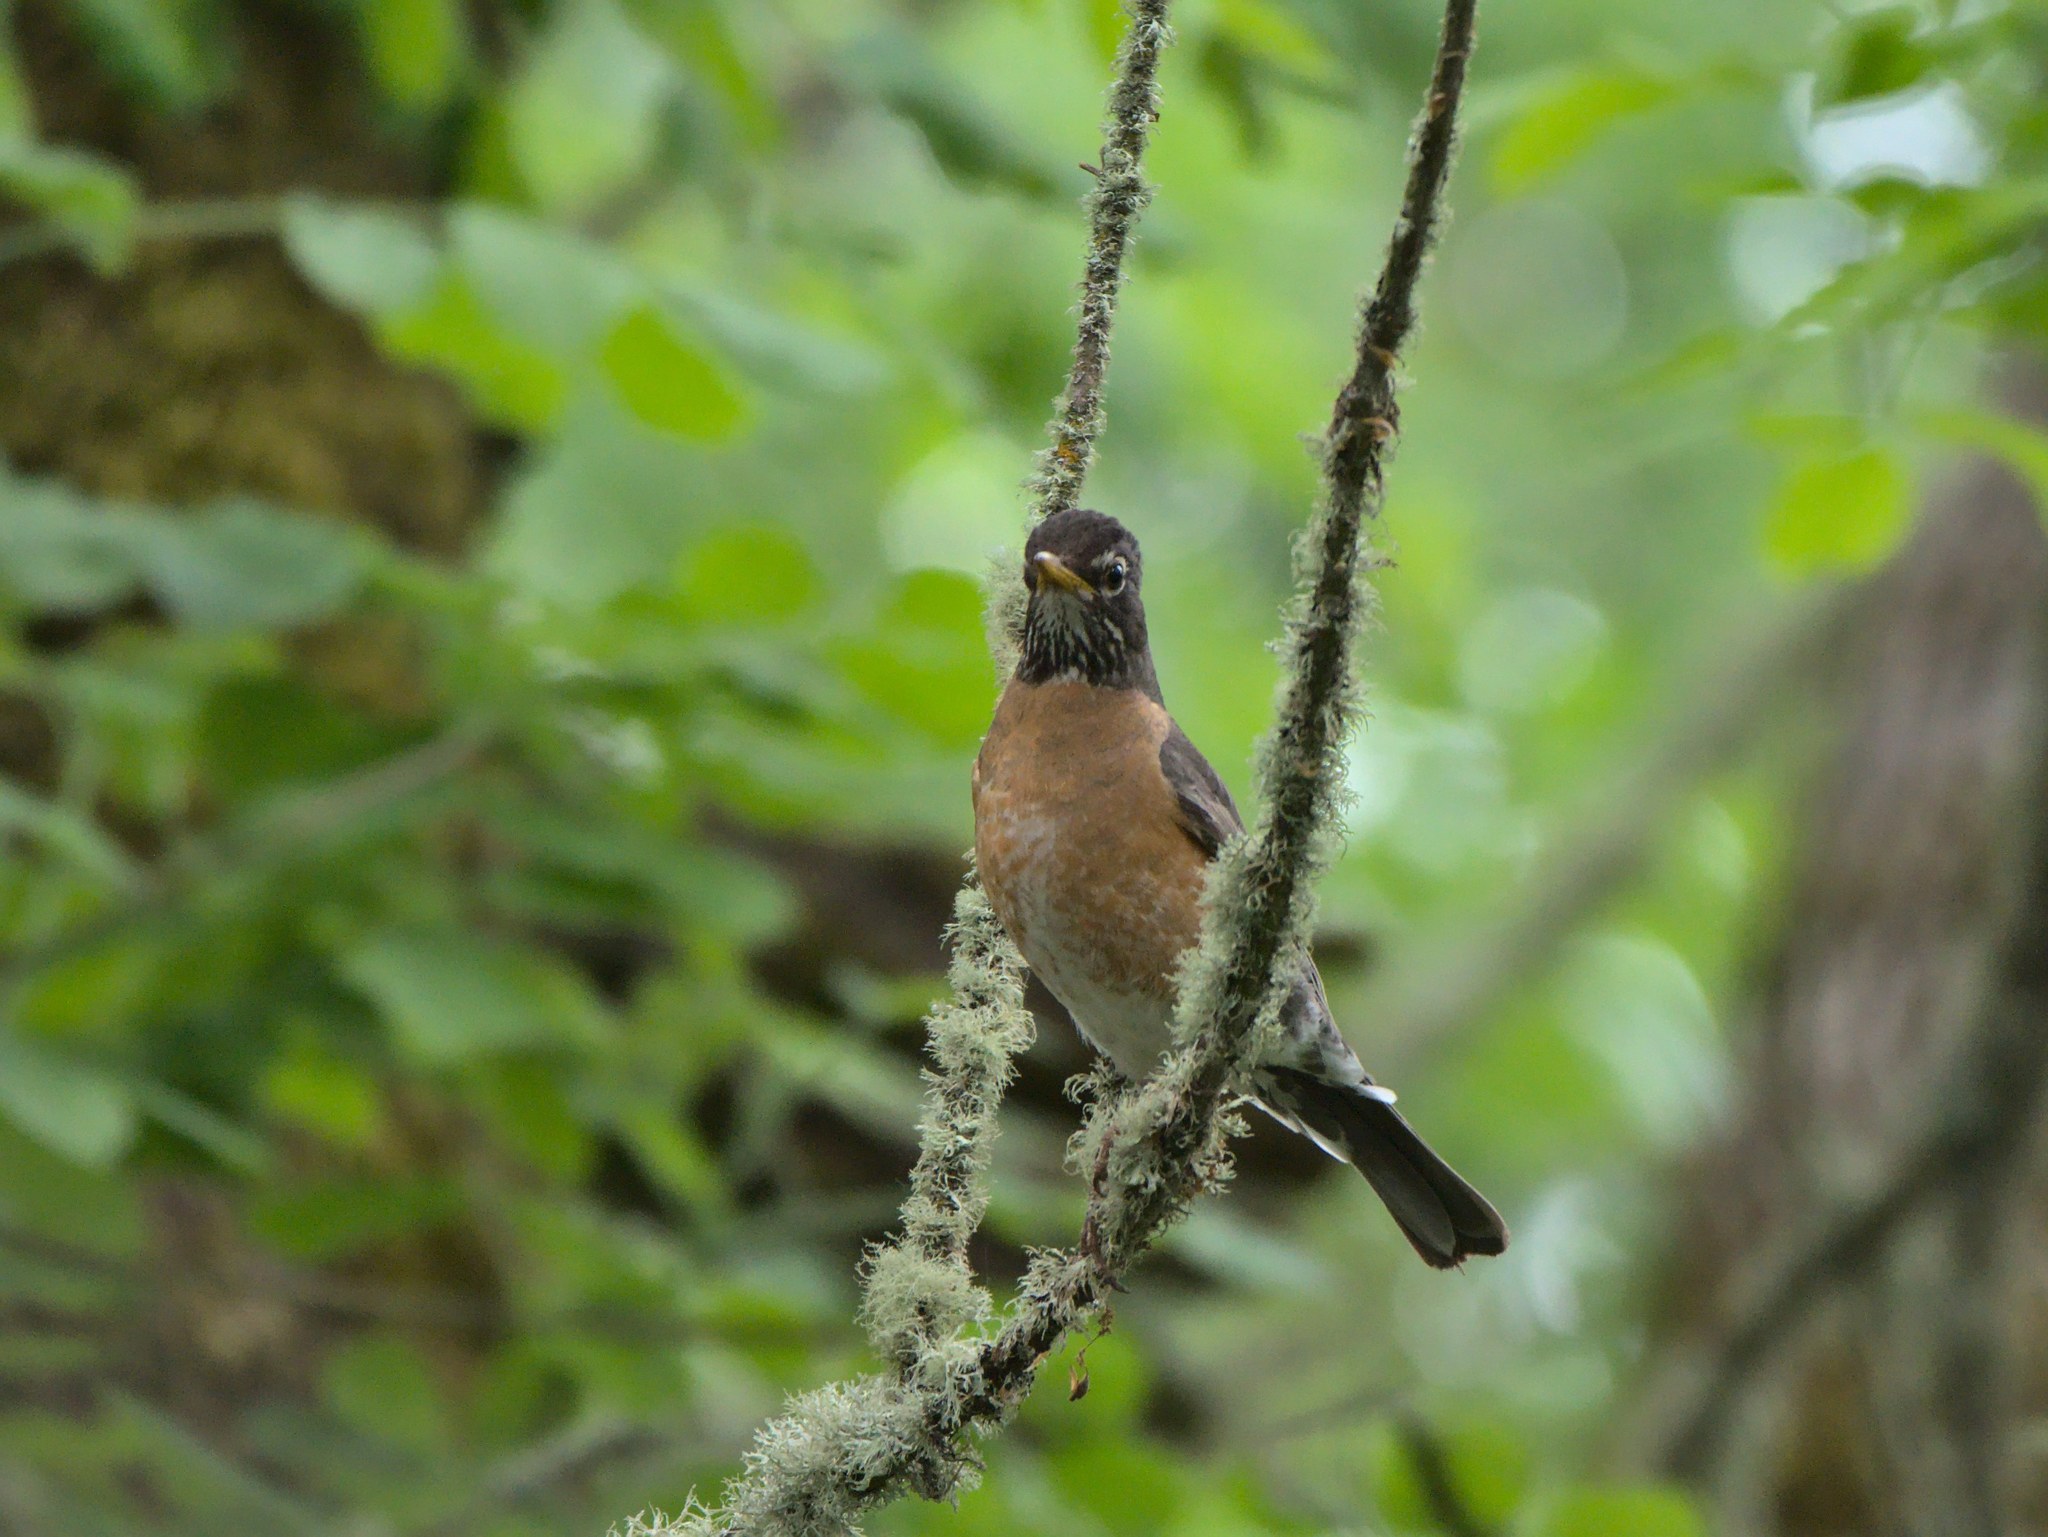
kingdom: Animalia
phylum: Chordata
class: Aves
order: Passeriformes
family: Turdidae
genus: Turdus
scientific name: Turdus migratorius
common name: American robin
